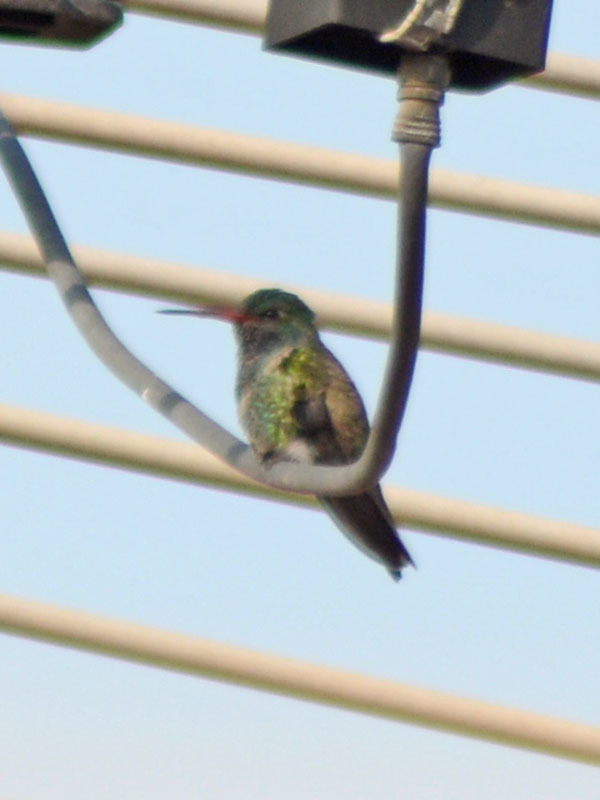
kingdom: Animalia
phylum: Chordata
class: Aves
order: Apodiformes
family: Trochilidae
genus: Cynanthus
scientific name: Cynanthus latirostris
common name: Broad-billed hummingbird
